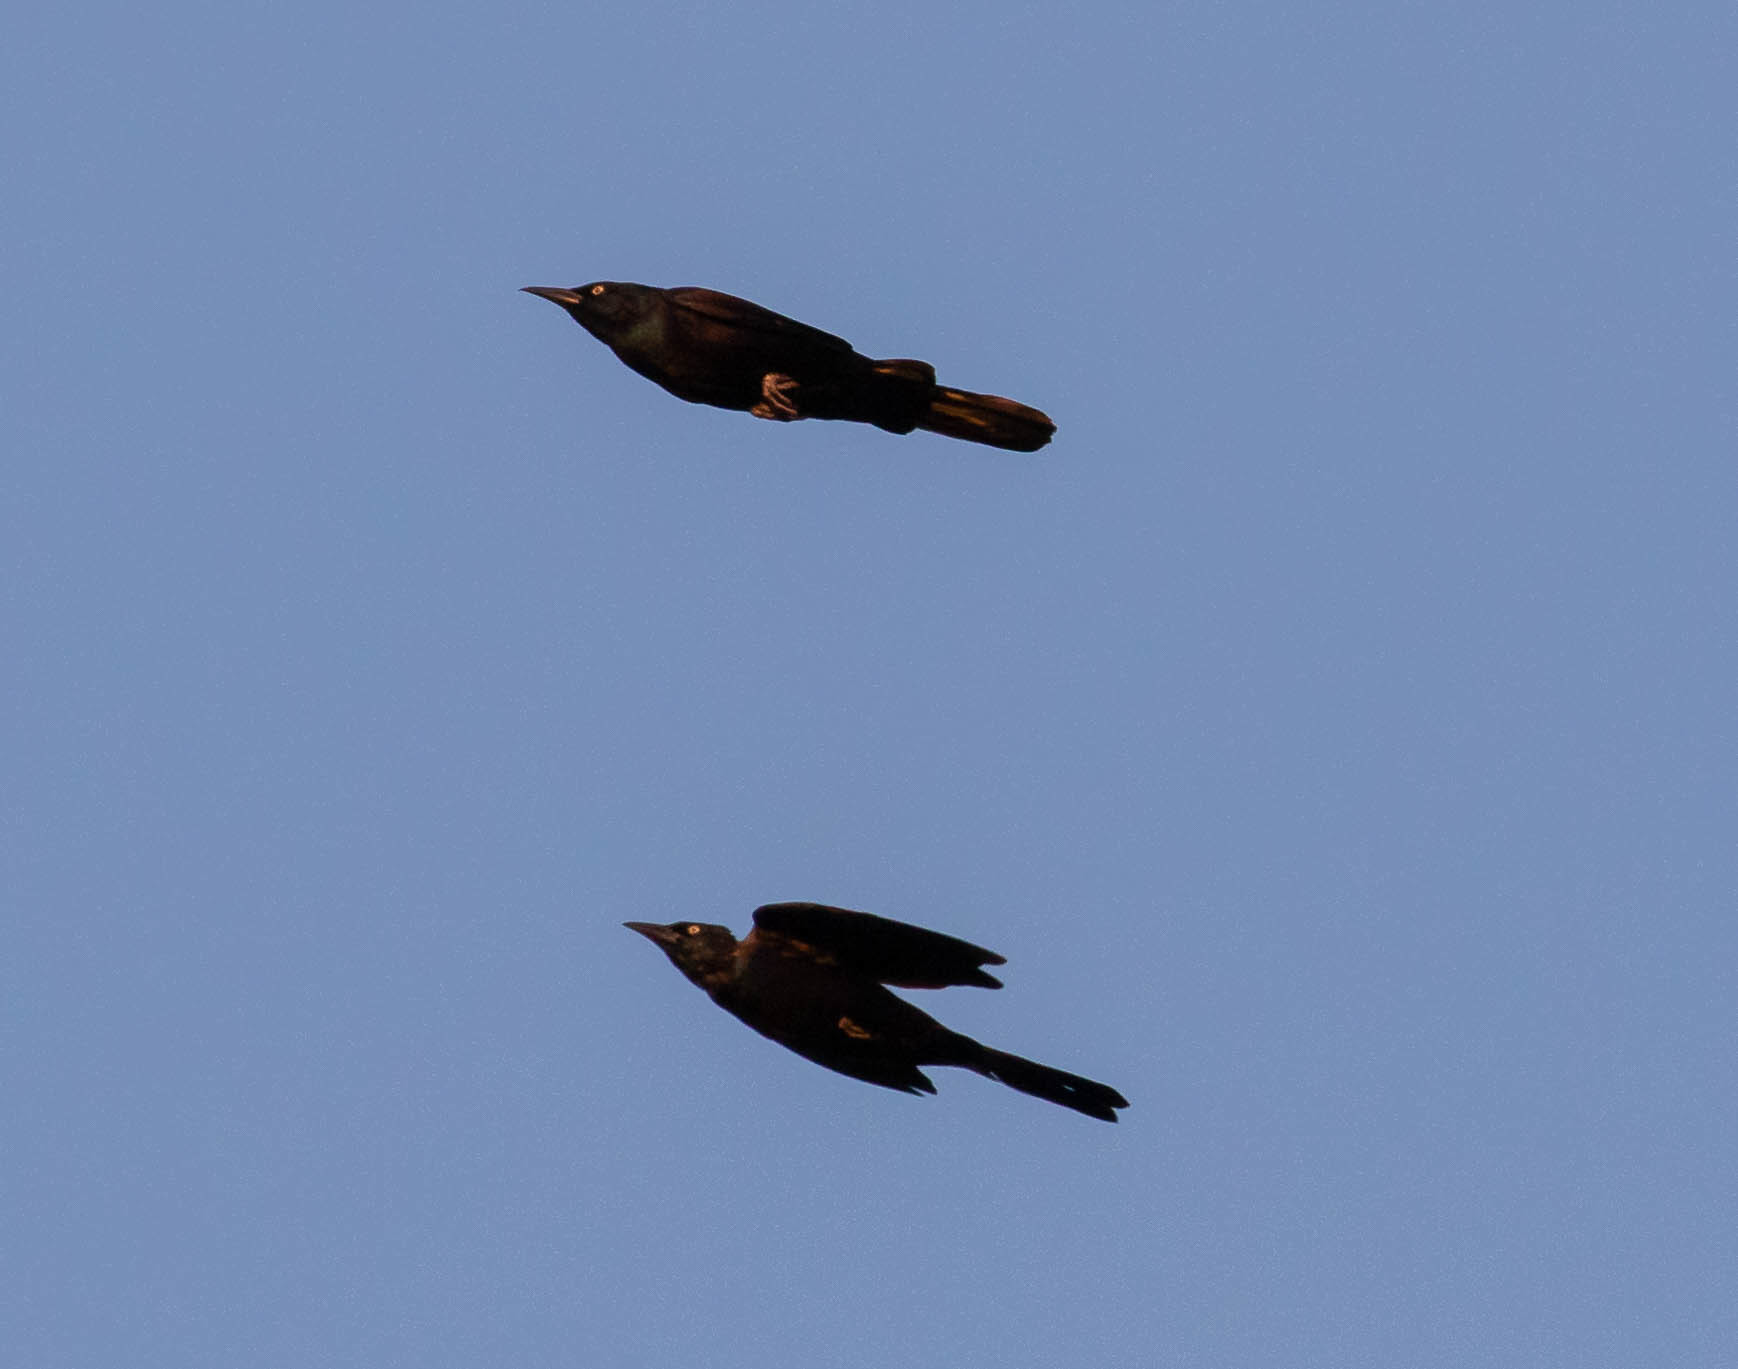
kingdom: Animalia
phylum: Chordata
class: Aves
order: Passeriformes
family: Icteridae
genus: Quiscalus
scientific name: Quiscalus quiscula
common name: Common grackle
